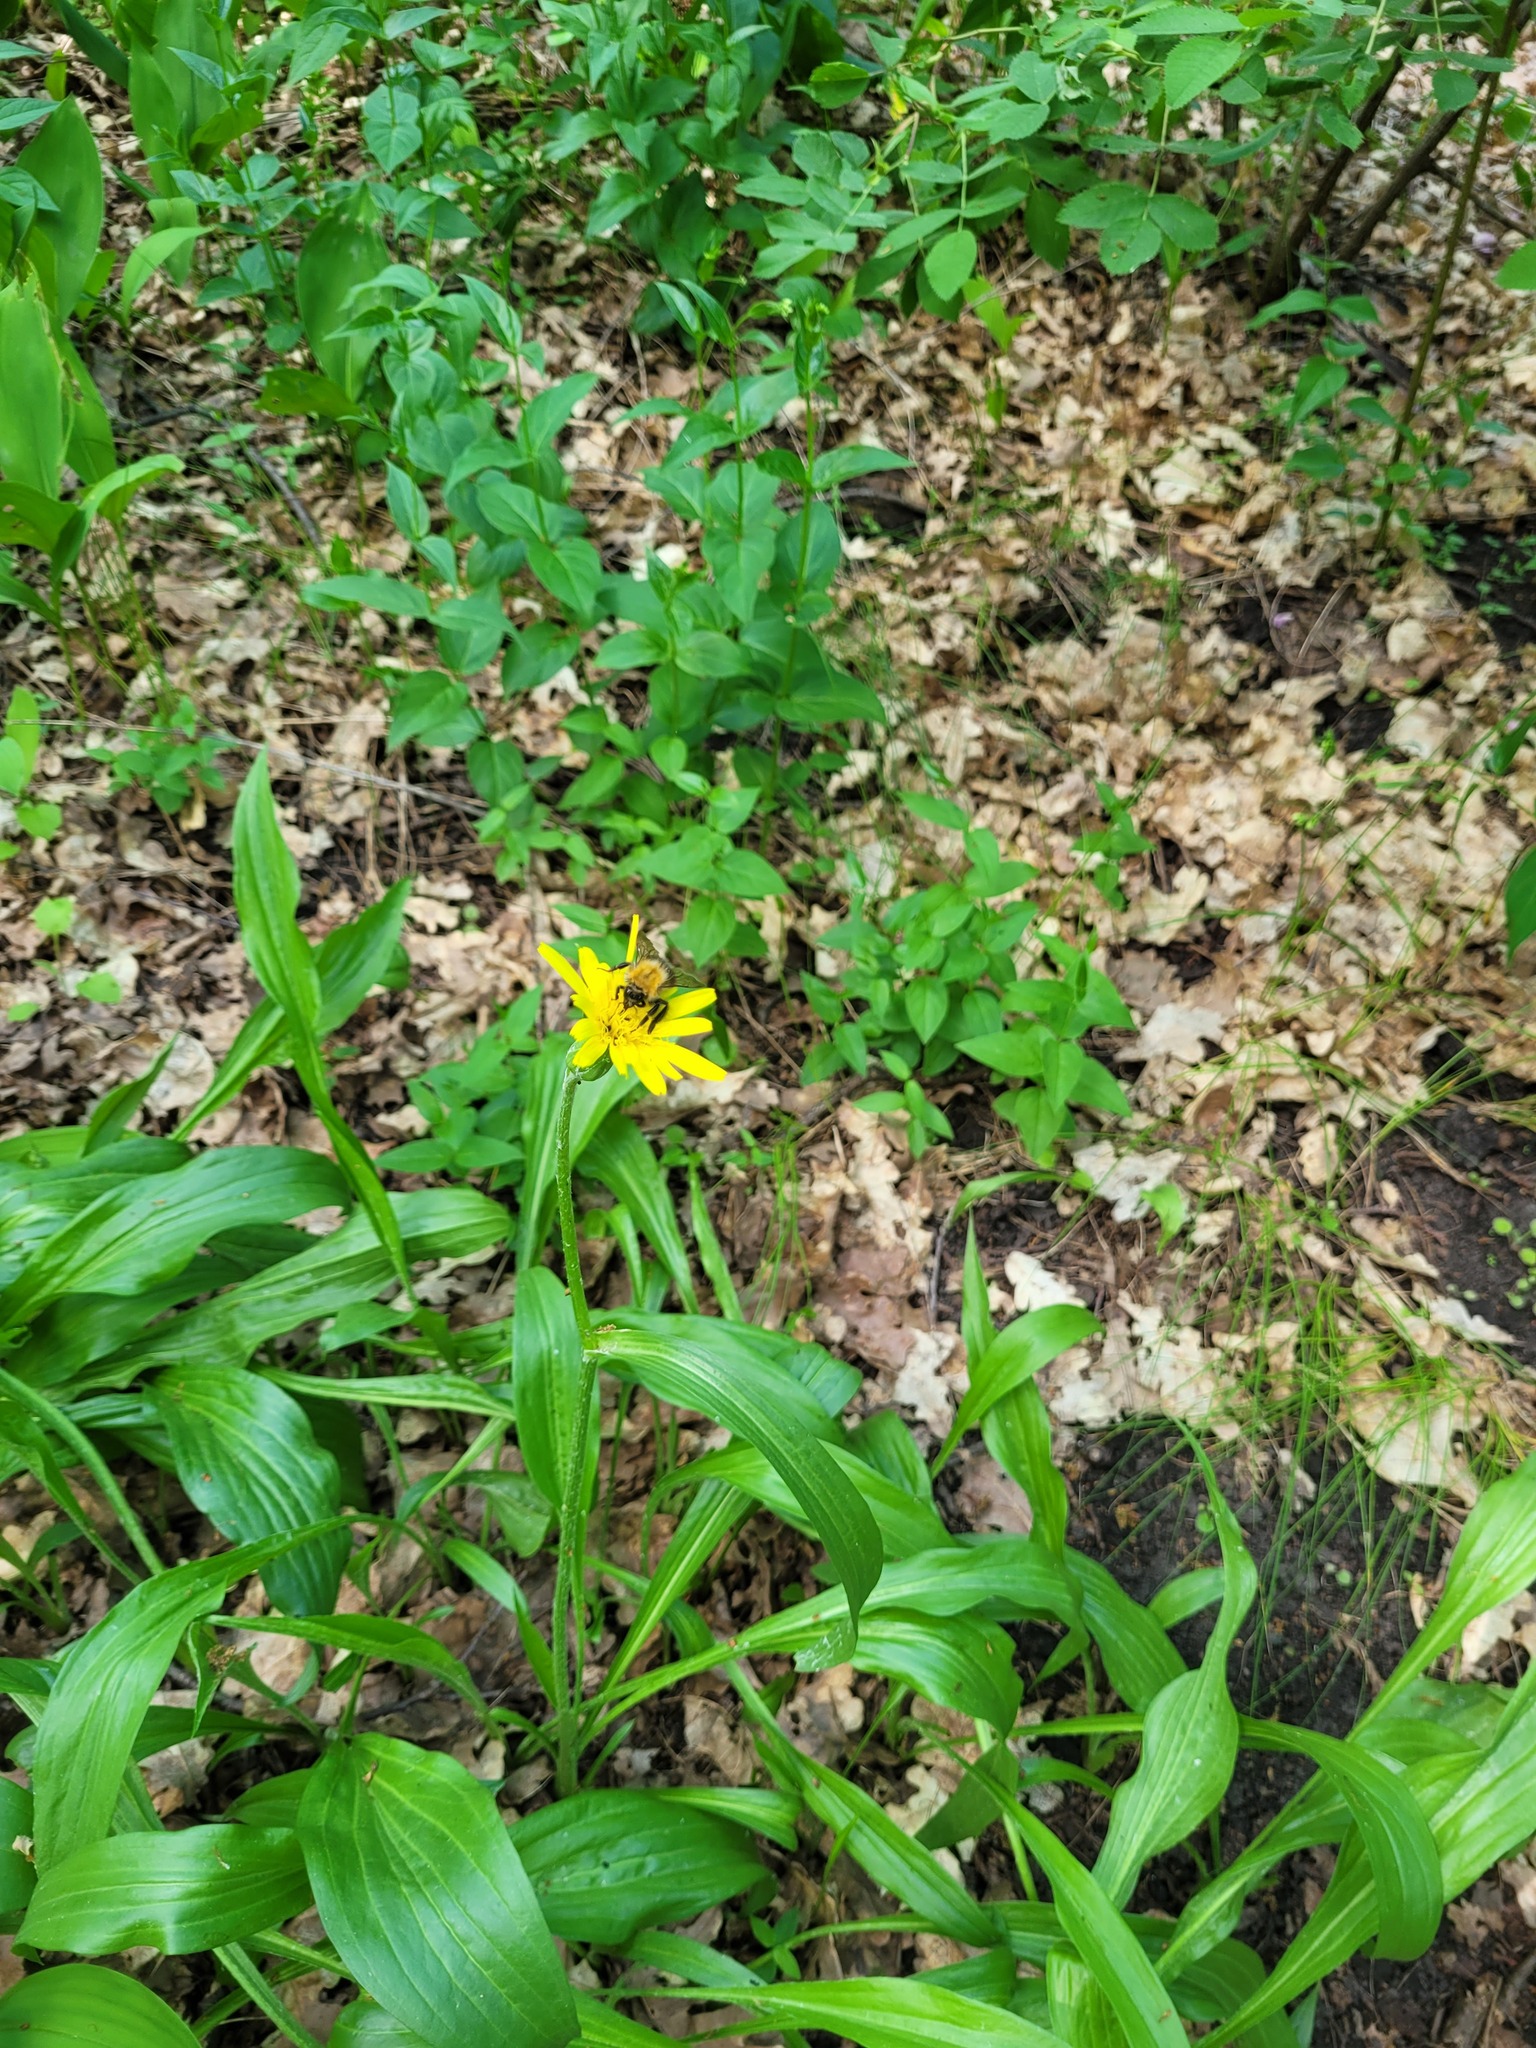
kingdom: Plantae
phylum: Tracheophyta
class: Magnoliopsida
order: Asterales
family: Asteraceae
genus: Scorzonera
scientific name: Scorzonera humilis
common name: Viper's-grass
